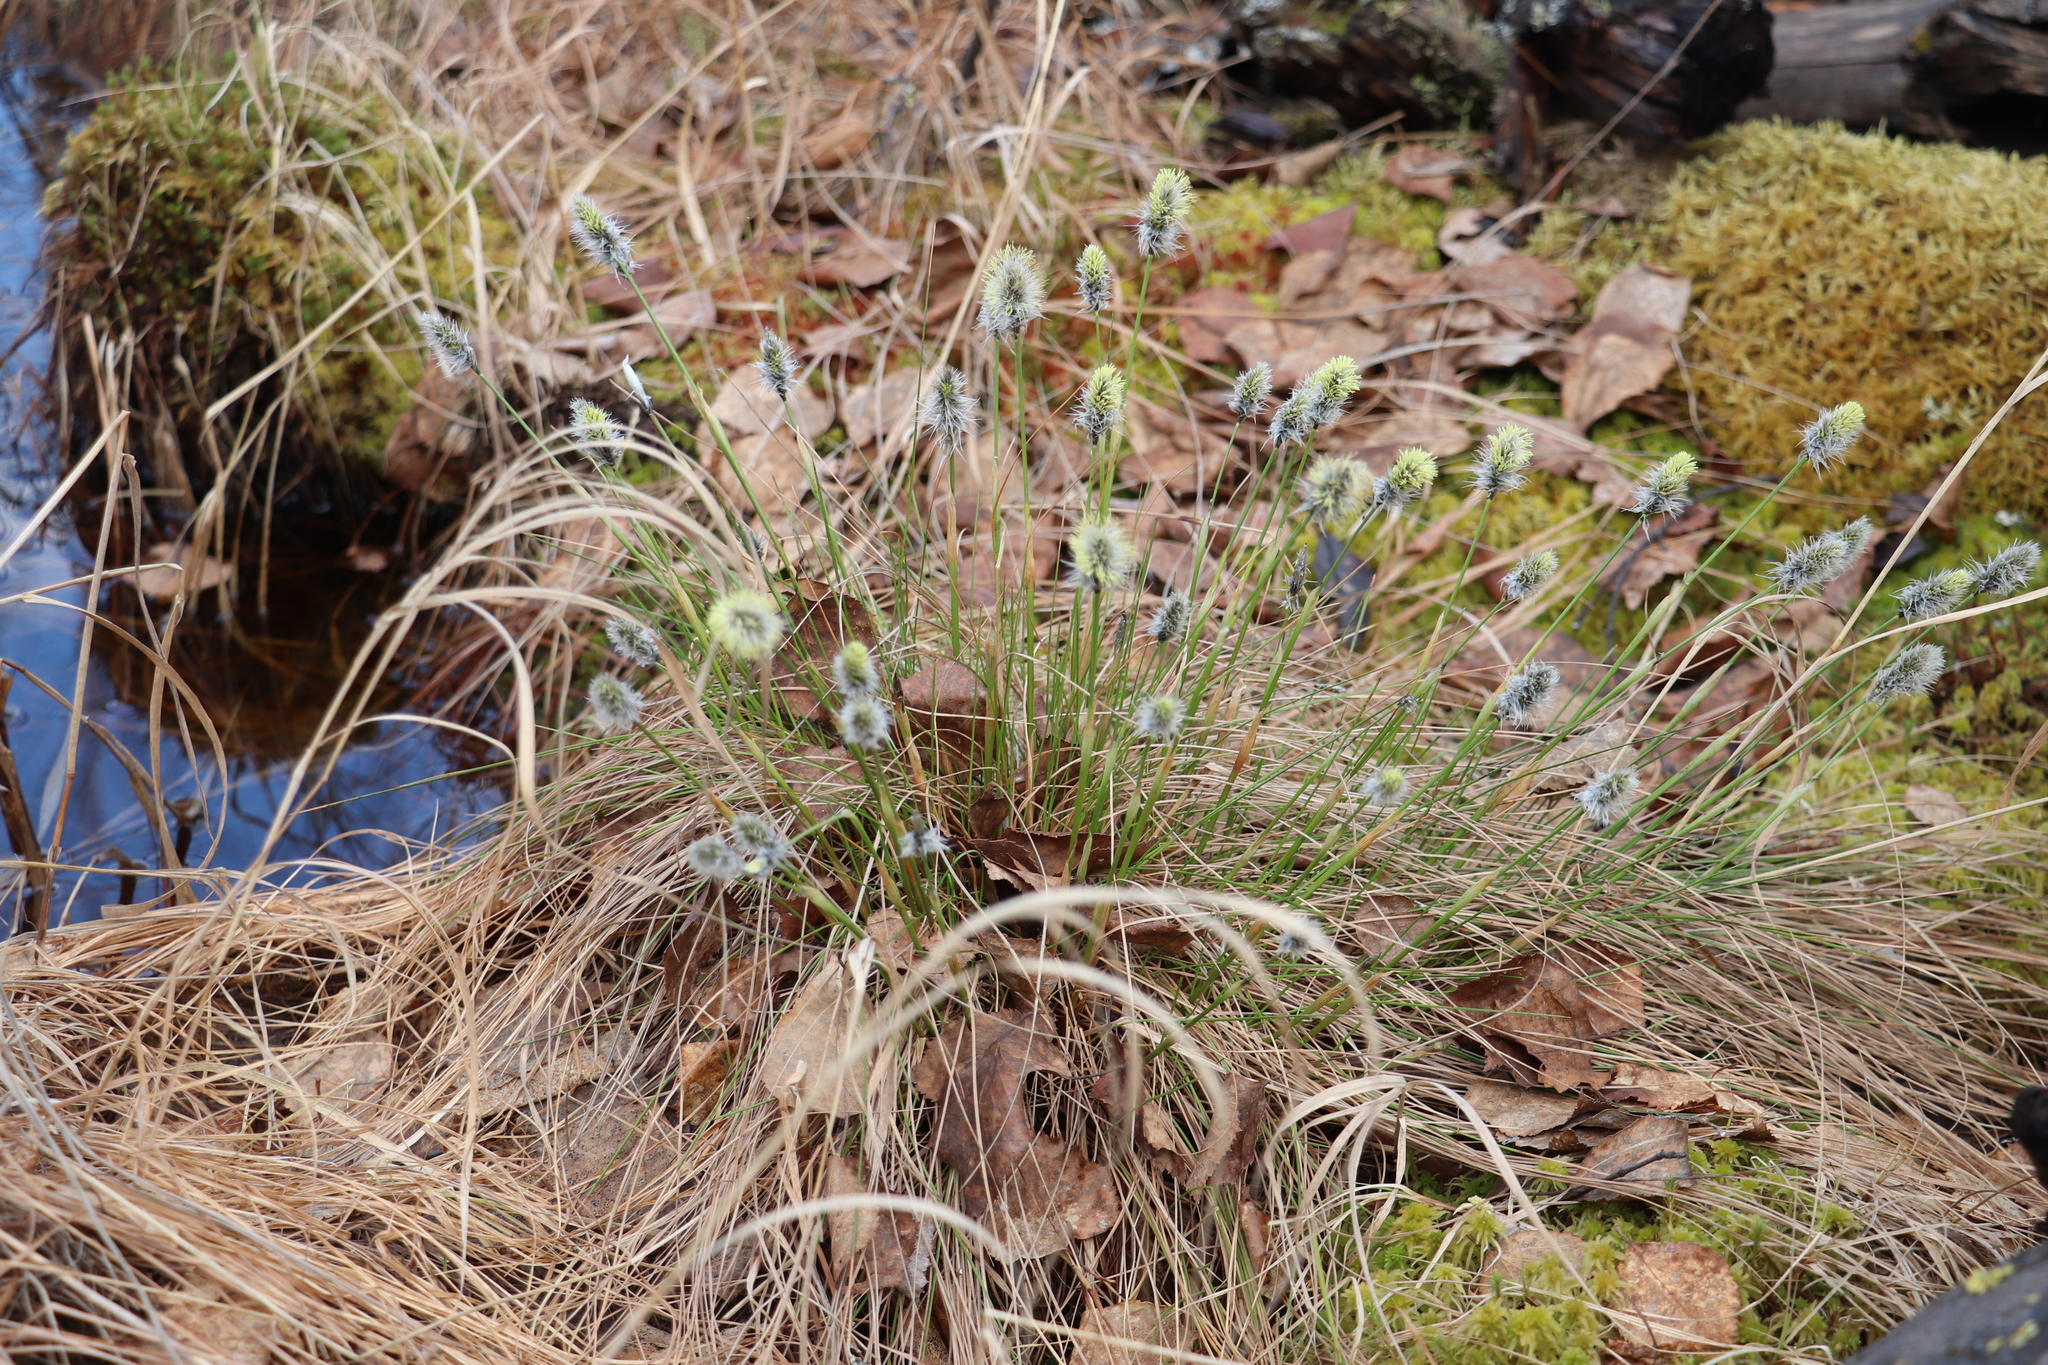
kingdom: Plantae
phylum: Tracheophyta
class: Liliopsida
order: Poales
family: Cyperaceae
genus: Eriophorum
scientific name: Eriophorum vaginatum
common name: Hare's-tail cottongrass
